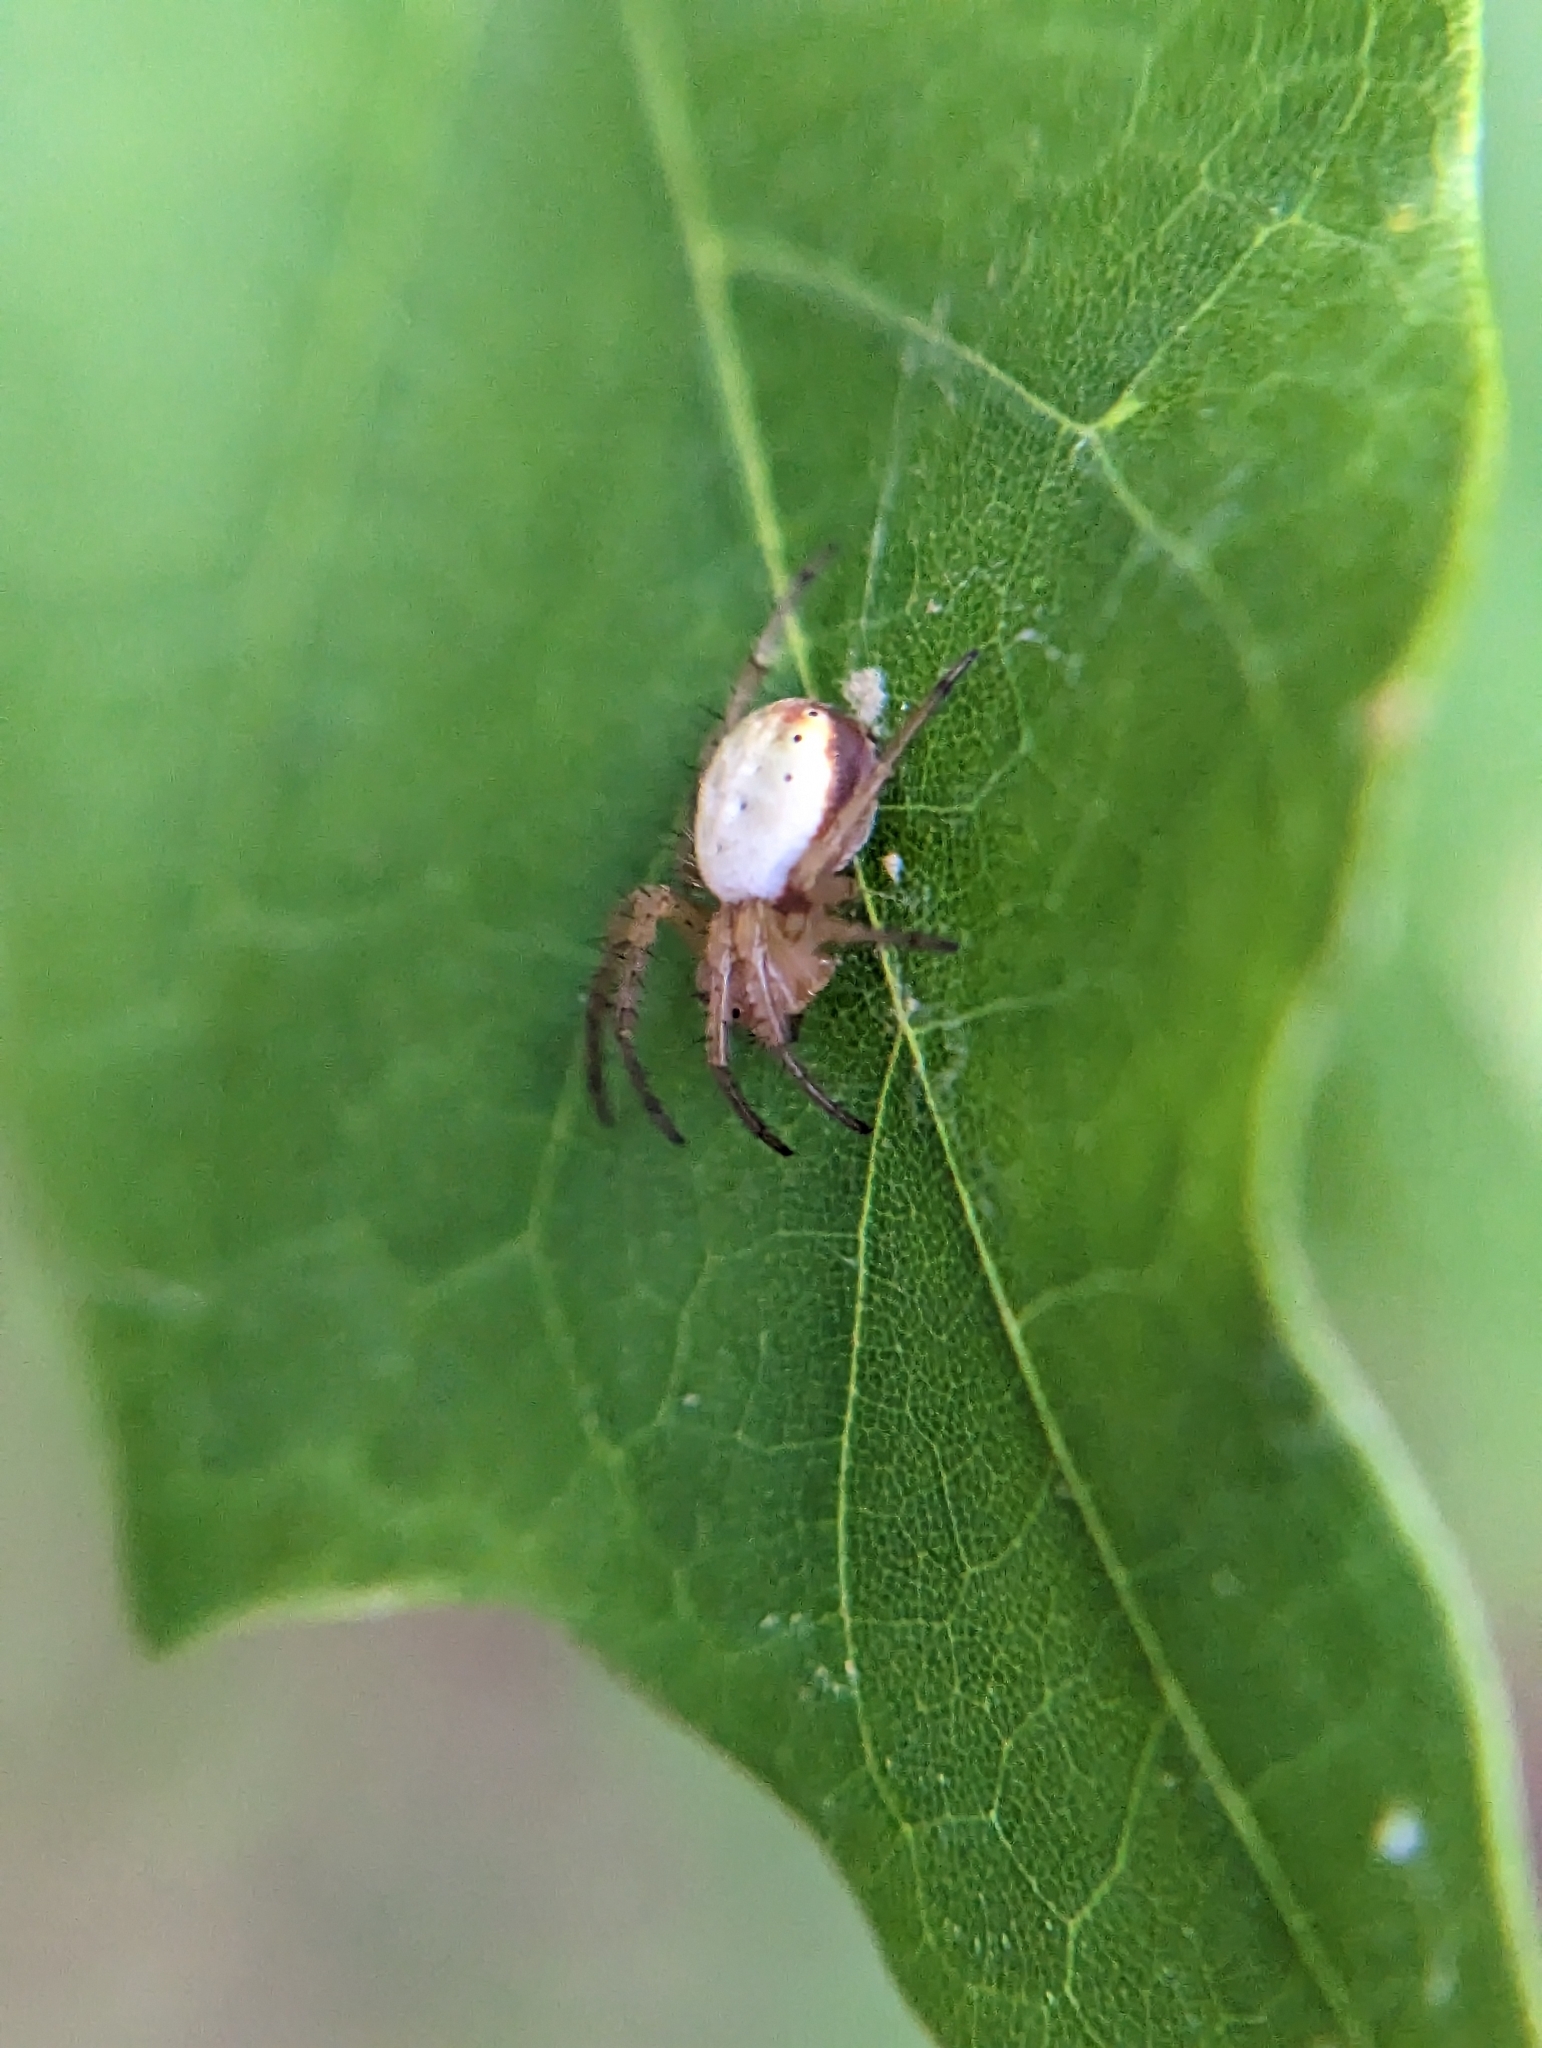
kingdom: Animalia
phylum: Arthropoda
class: Arachnida
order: Araneae
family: Araneidae
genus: Araniella
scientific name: Araniella displicata
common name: Sixspotted orb weaver
